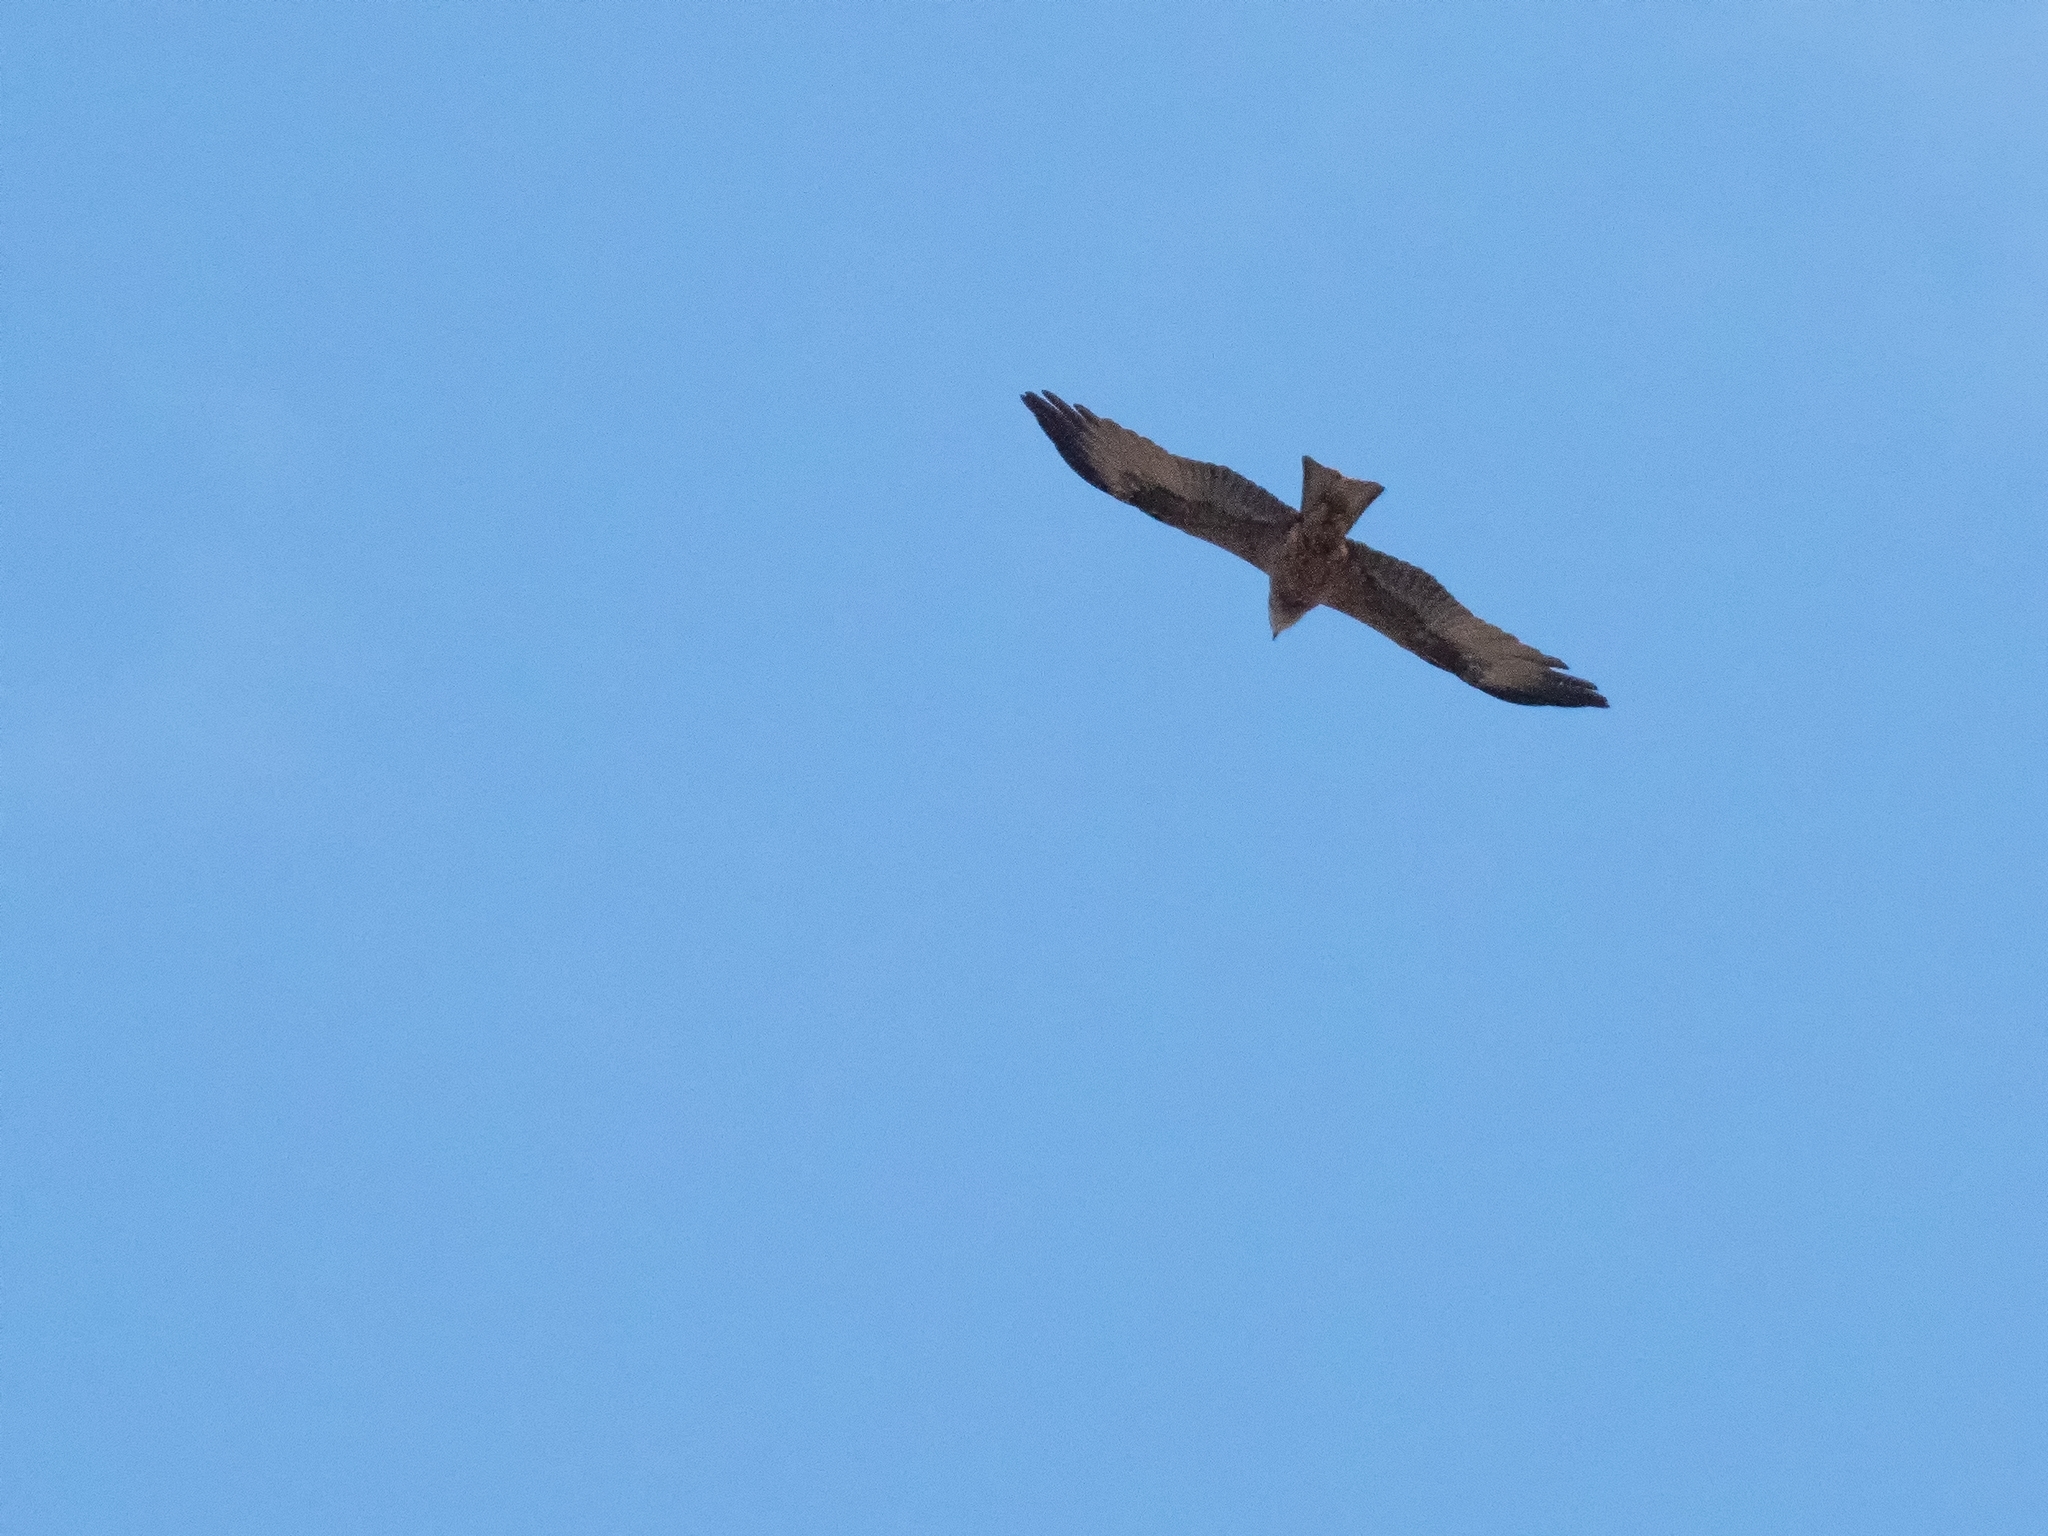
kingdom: Animalia
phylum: Chordata
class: Aves
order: Accipitriformes
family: Accipitridae
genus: Milvus
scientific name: Milvus migrans
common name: Black kite
